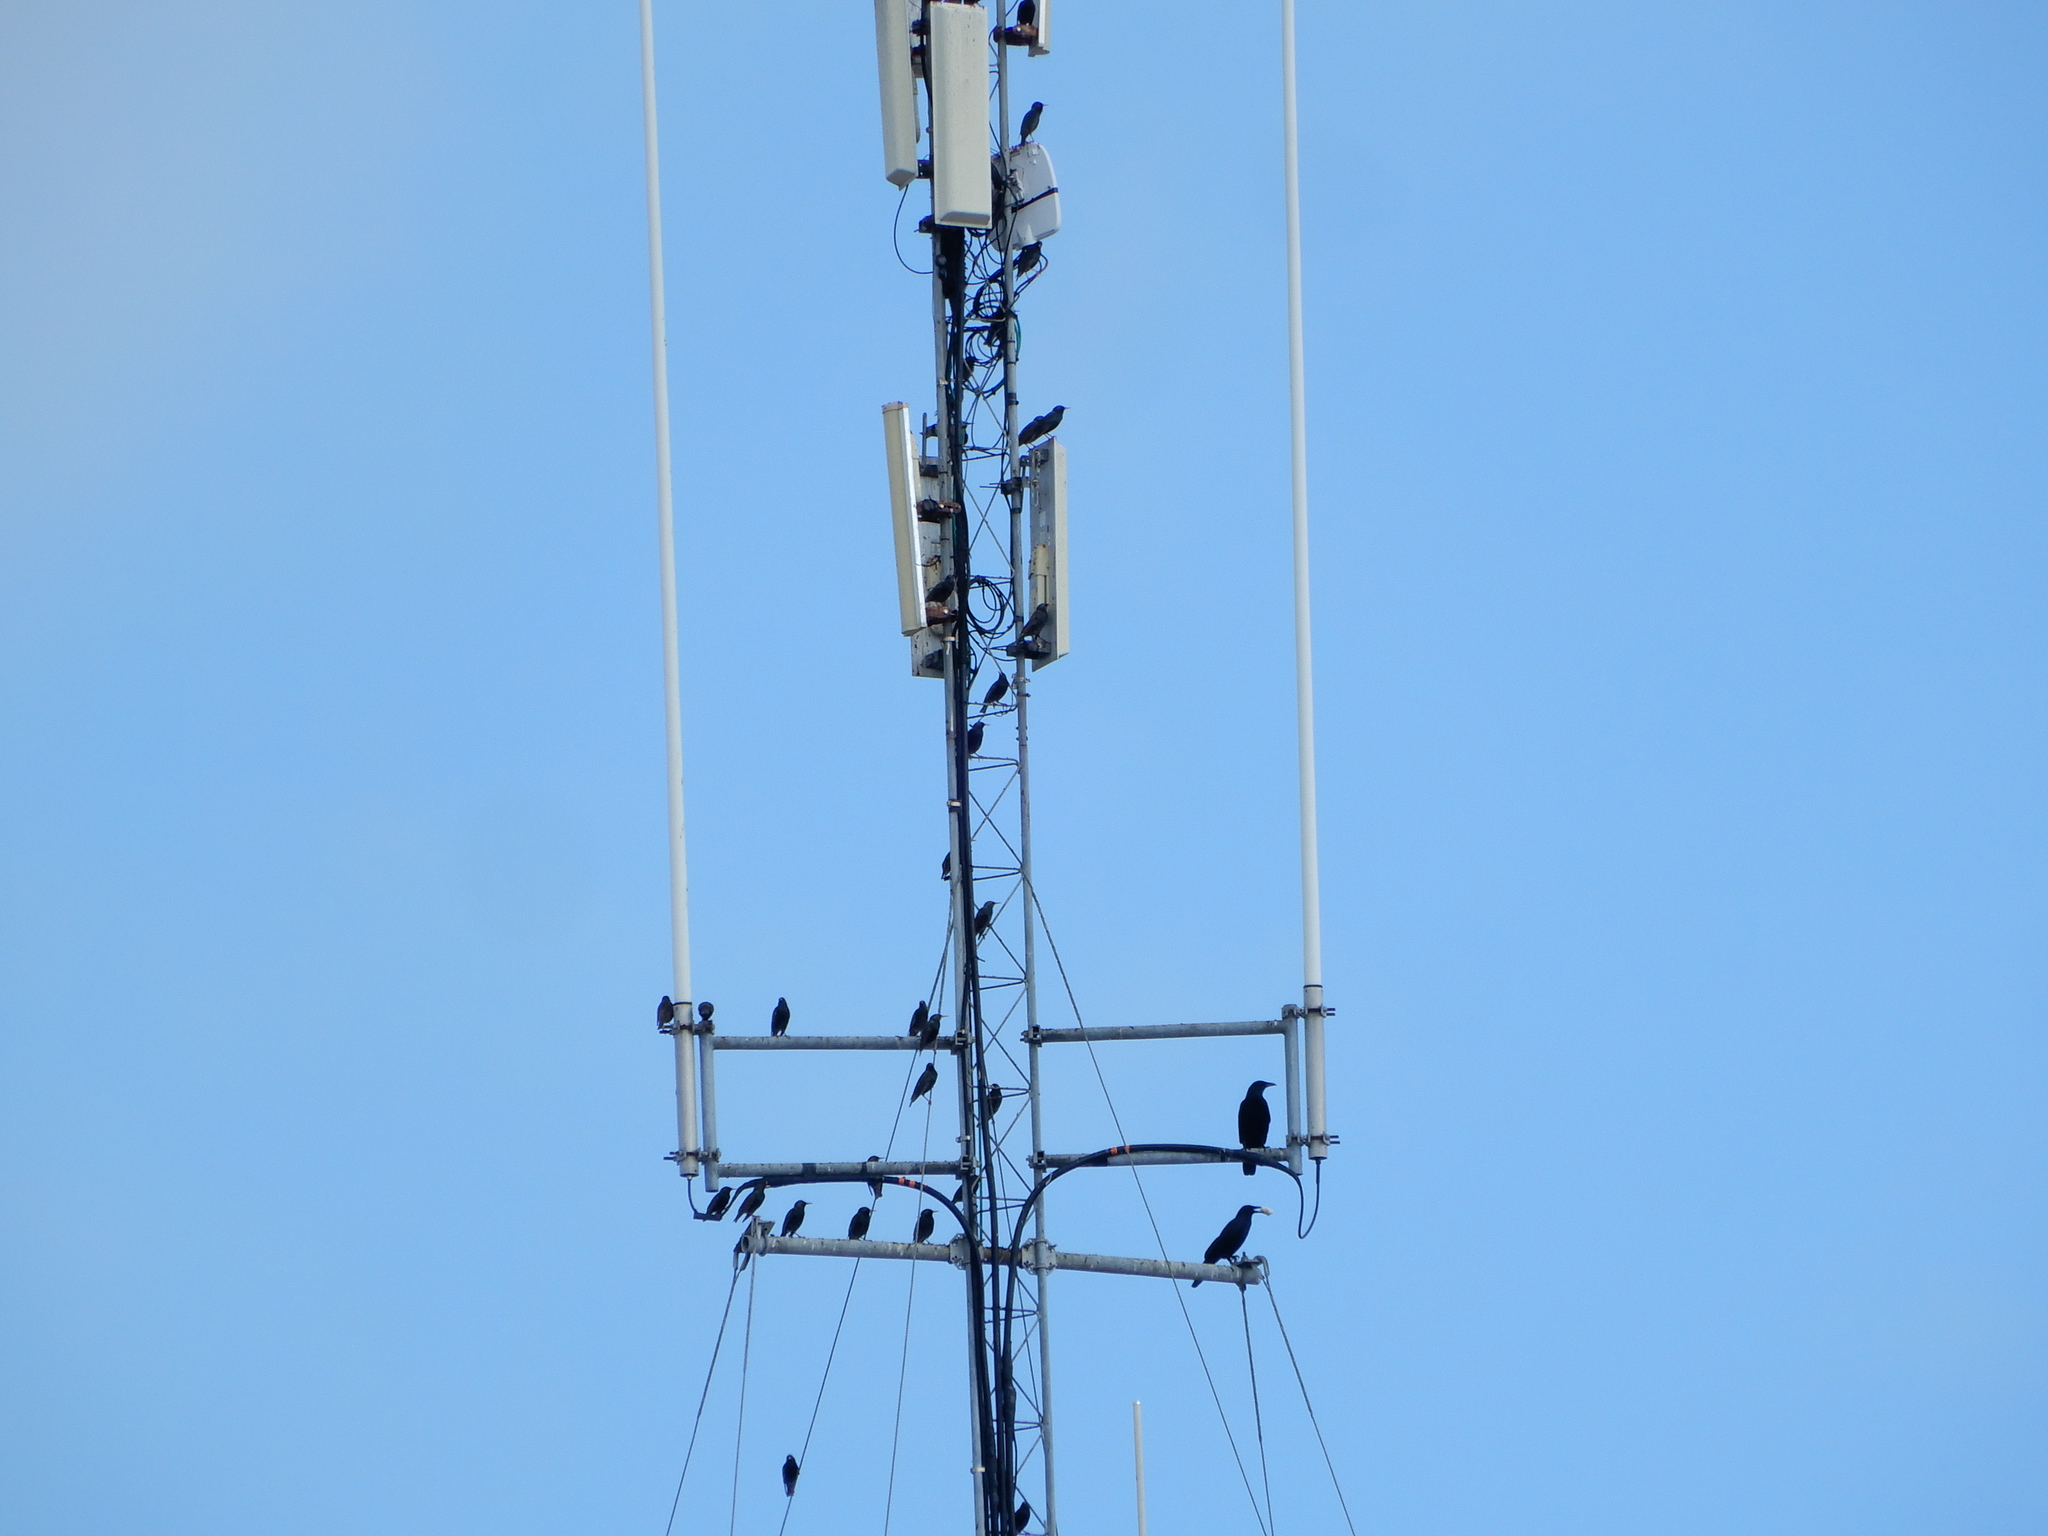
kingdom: Animalia
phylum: Chordata
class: Aves
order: Passeriformes
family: Sturnidae
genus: Sturnus
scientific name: Sturnus vulgaris
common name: Common starling
